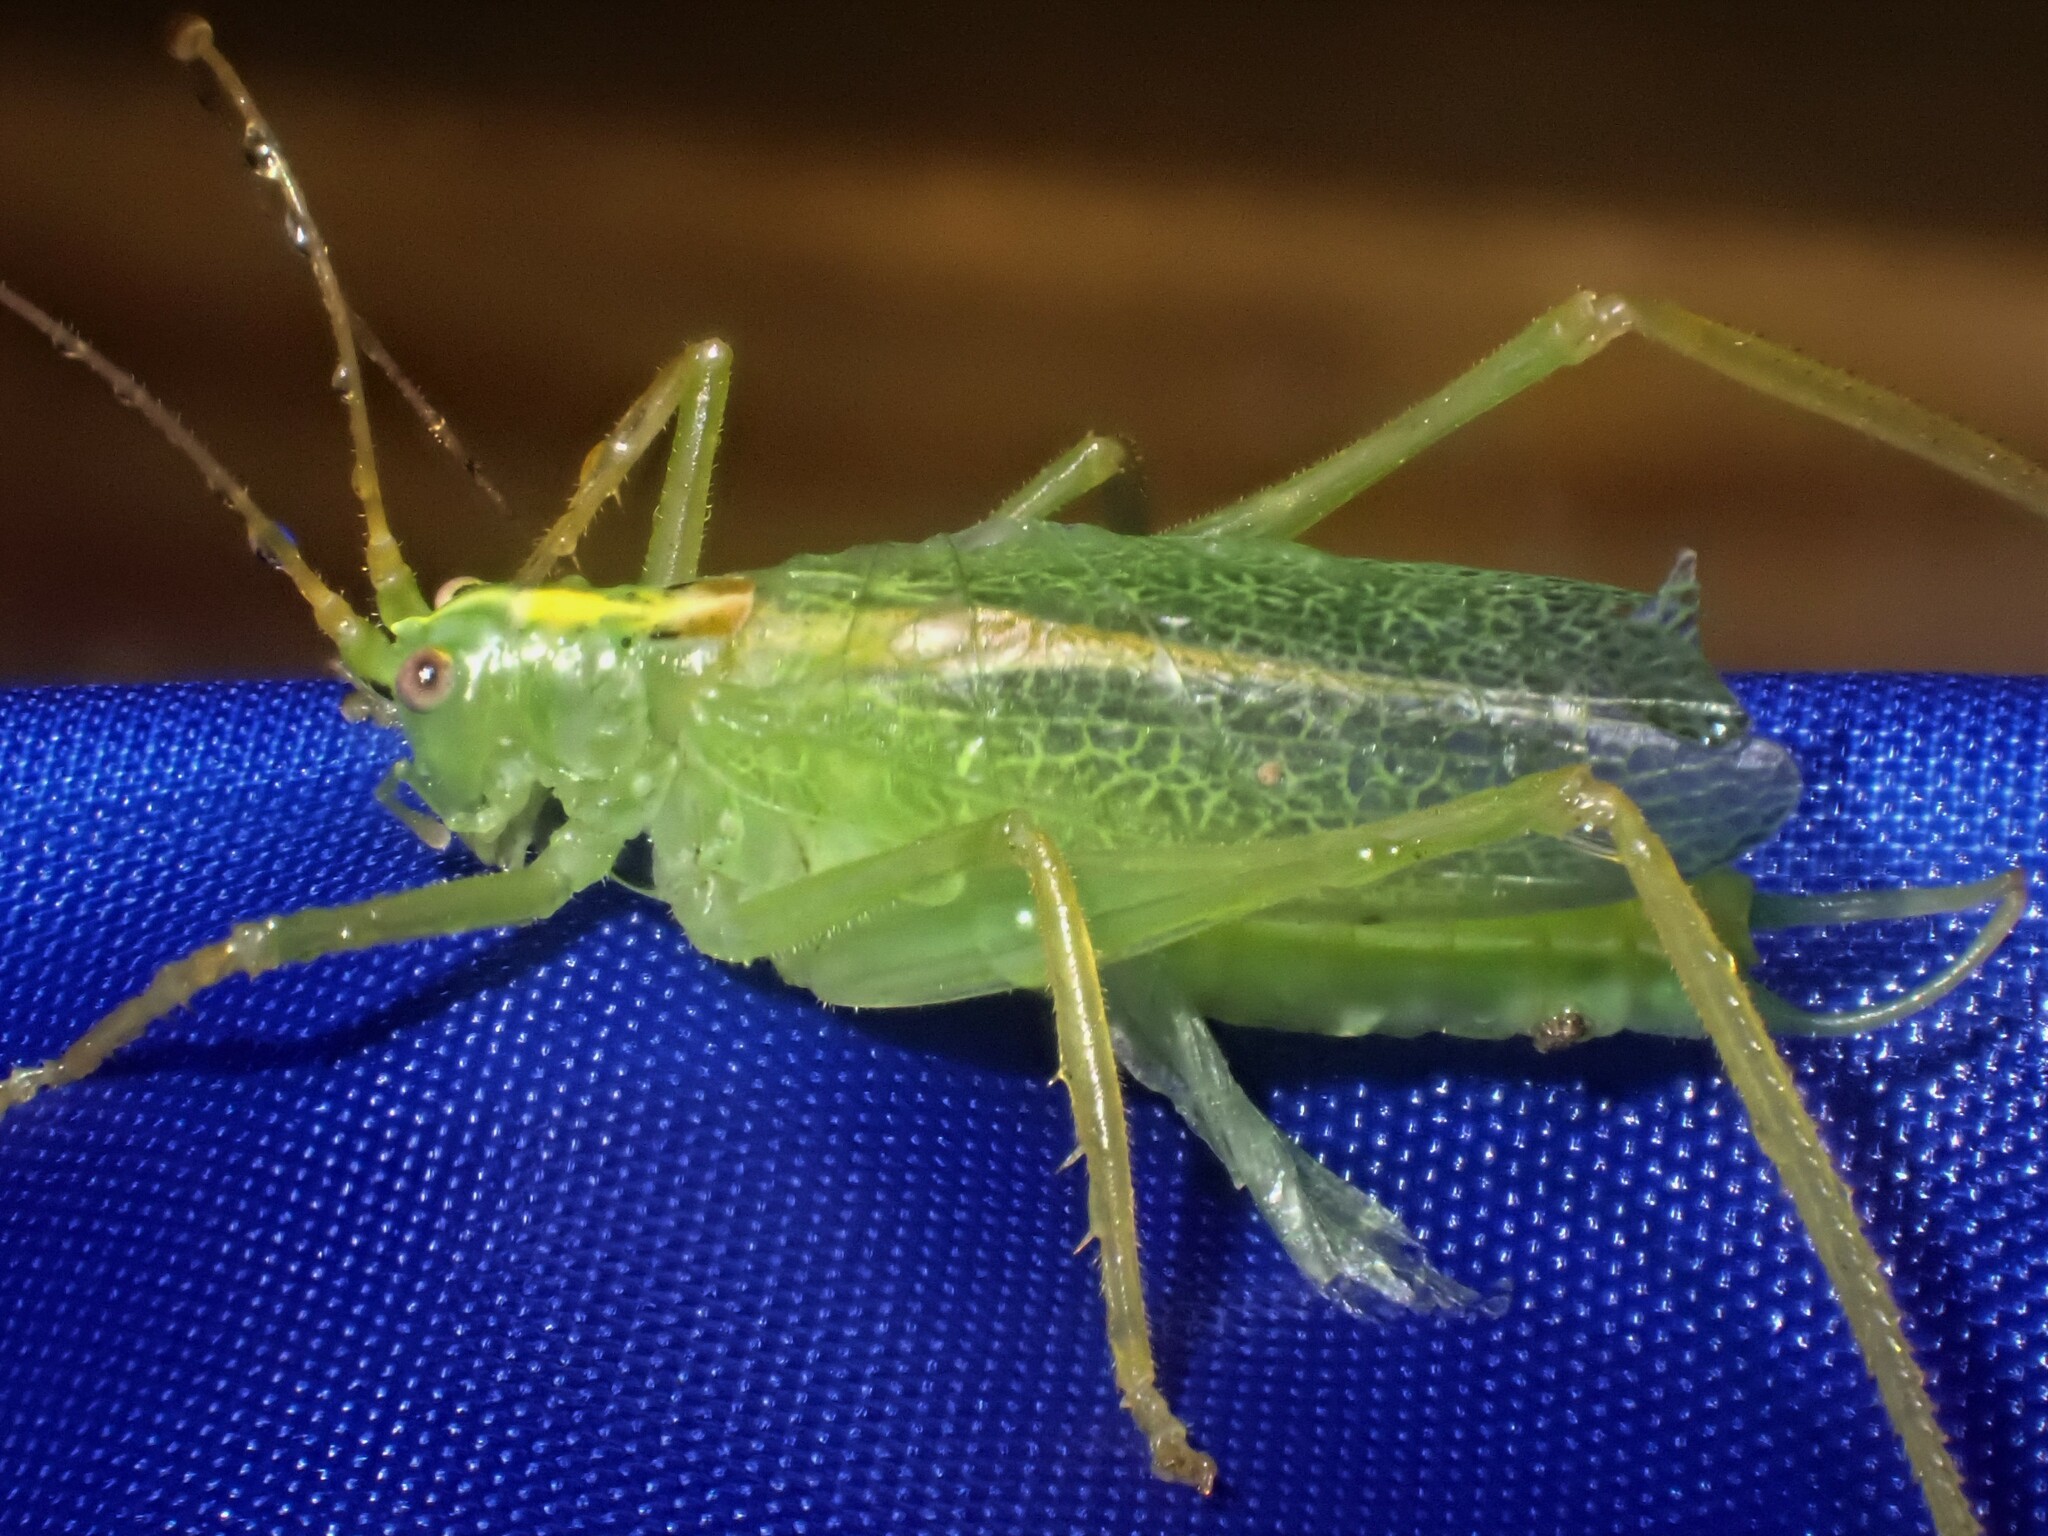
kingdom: Animalia
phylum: Arthropoda
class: Insecta
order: Orthoptera
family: Tettigoniidae
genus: Meconema
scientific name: Meconema thalassinum
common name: Oak bush-cricket
